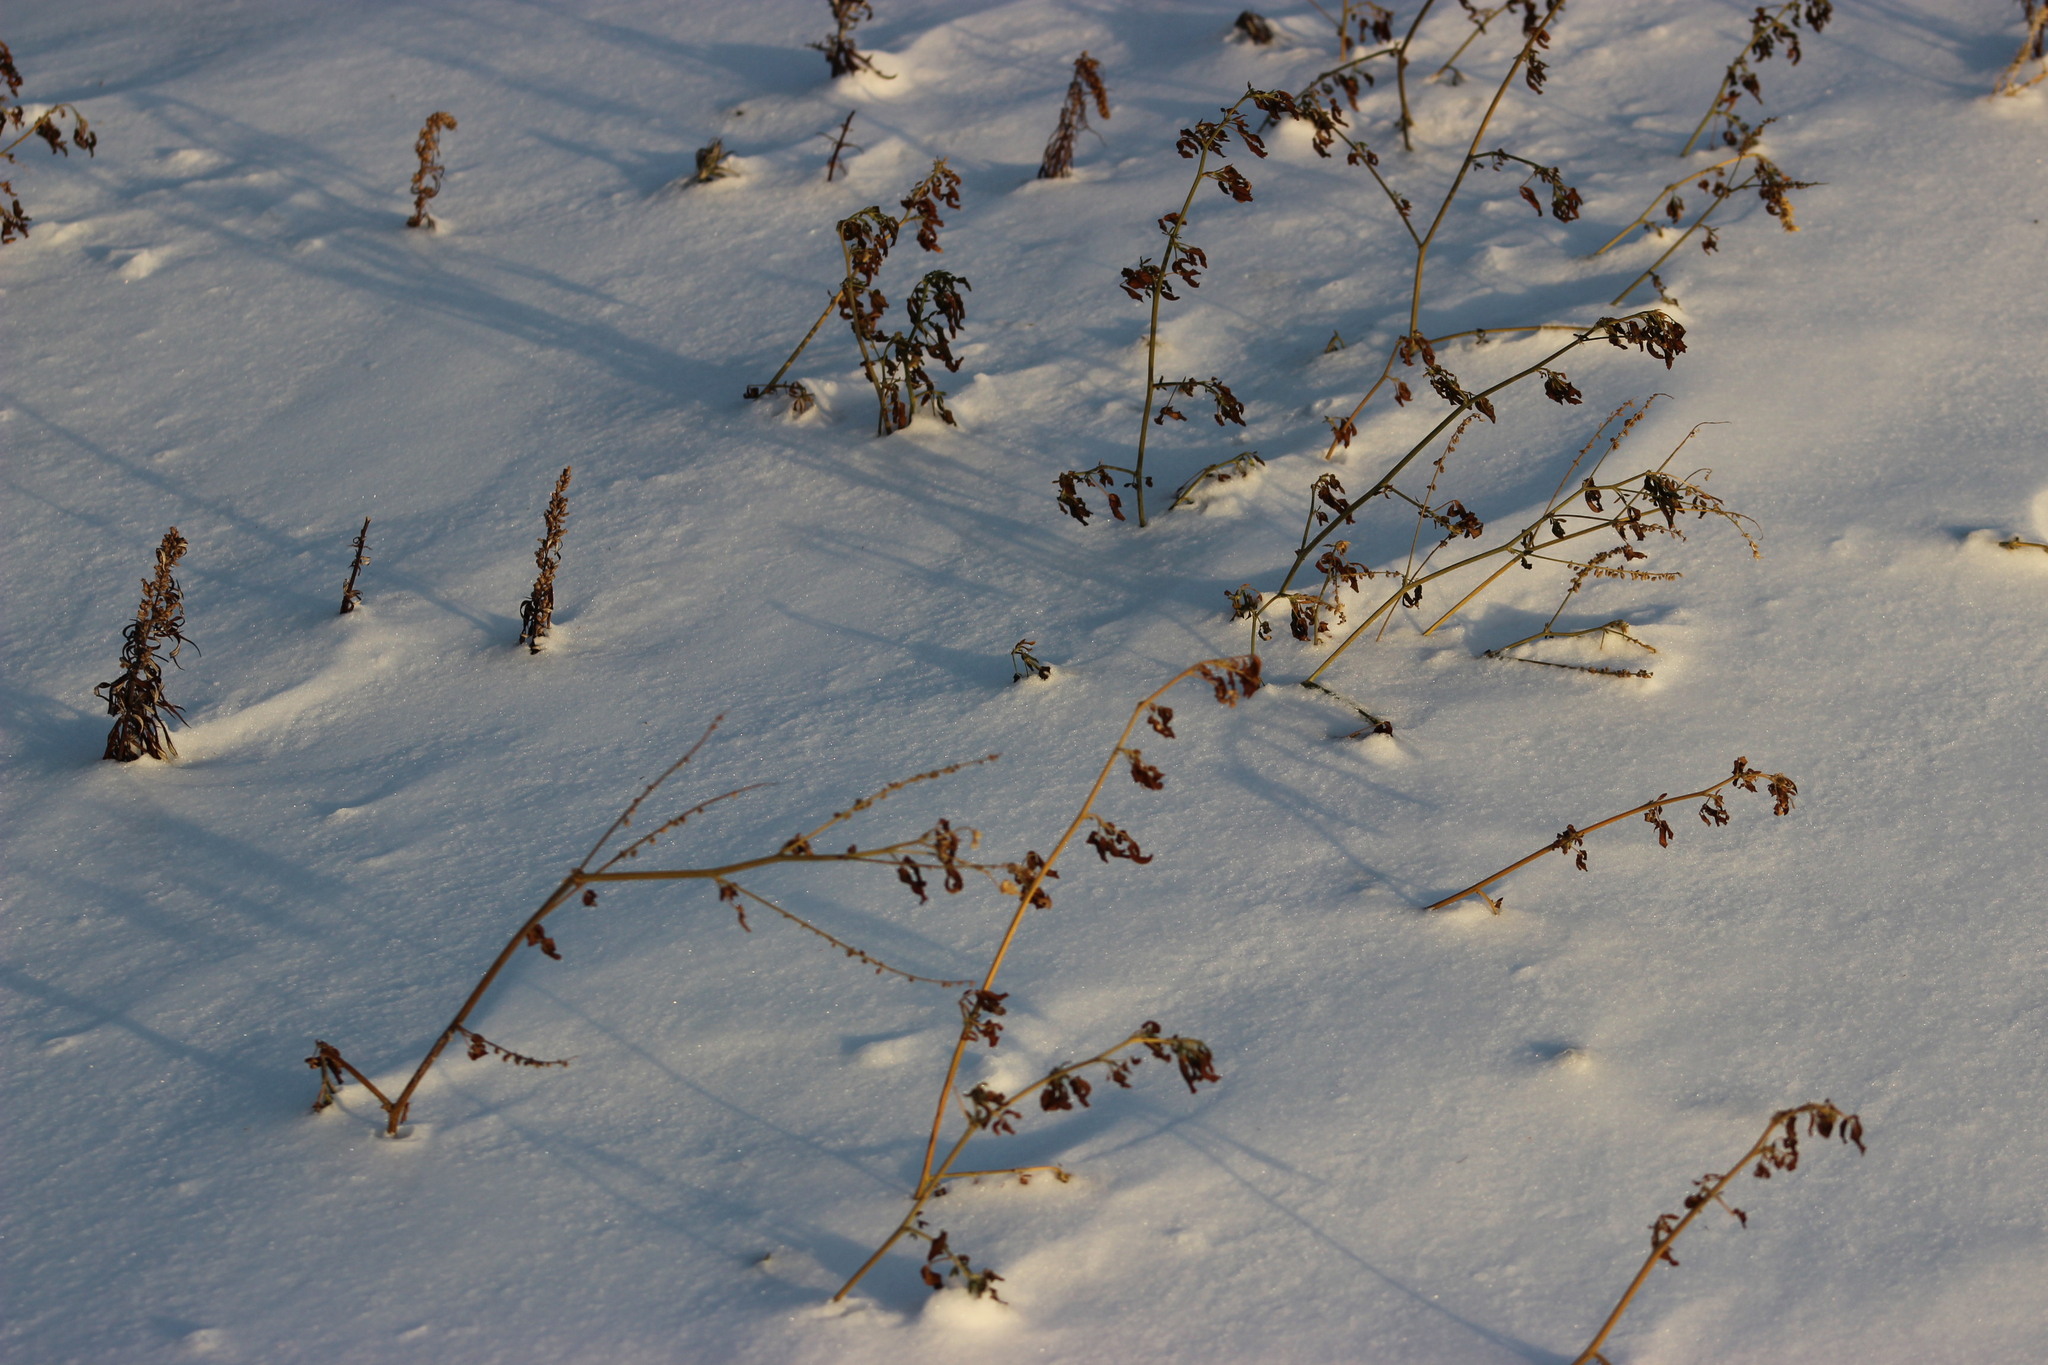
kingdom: Plantae
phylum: Tracheophyta
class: Magnoliopsida
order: Fabales
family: Fabaceae
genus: Medicago
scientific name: Medicago varia
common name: Sand lucerne
